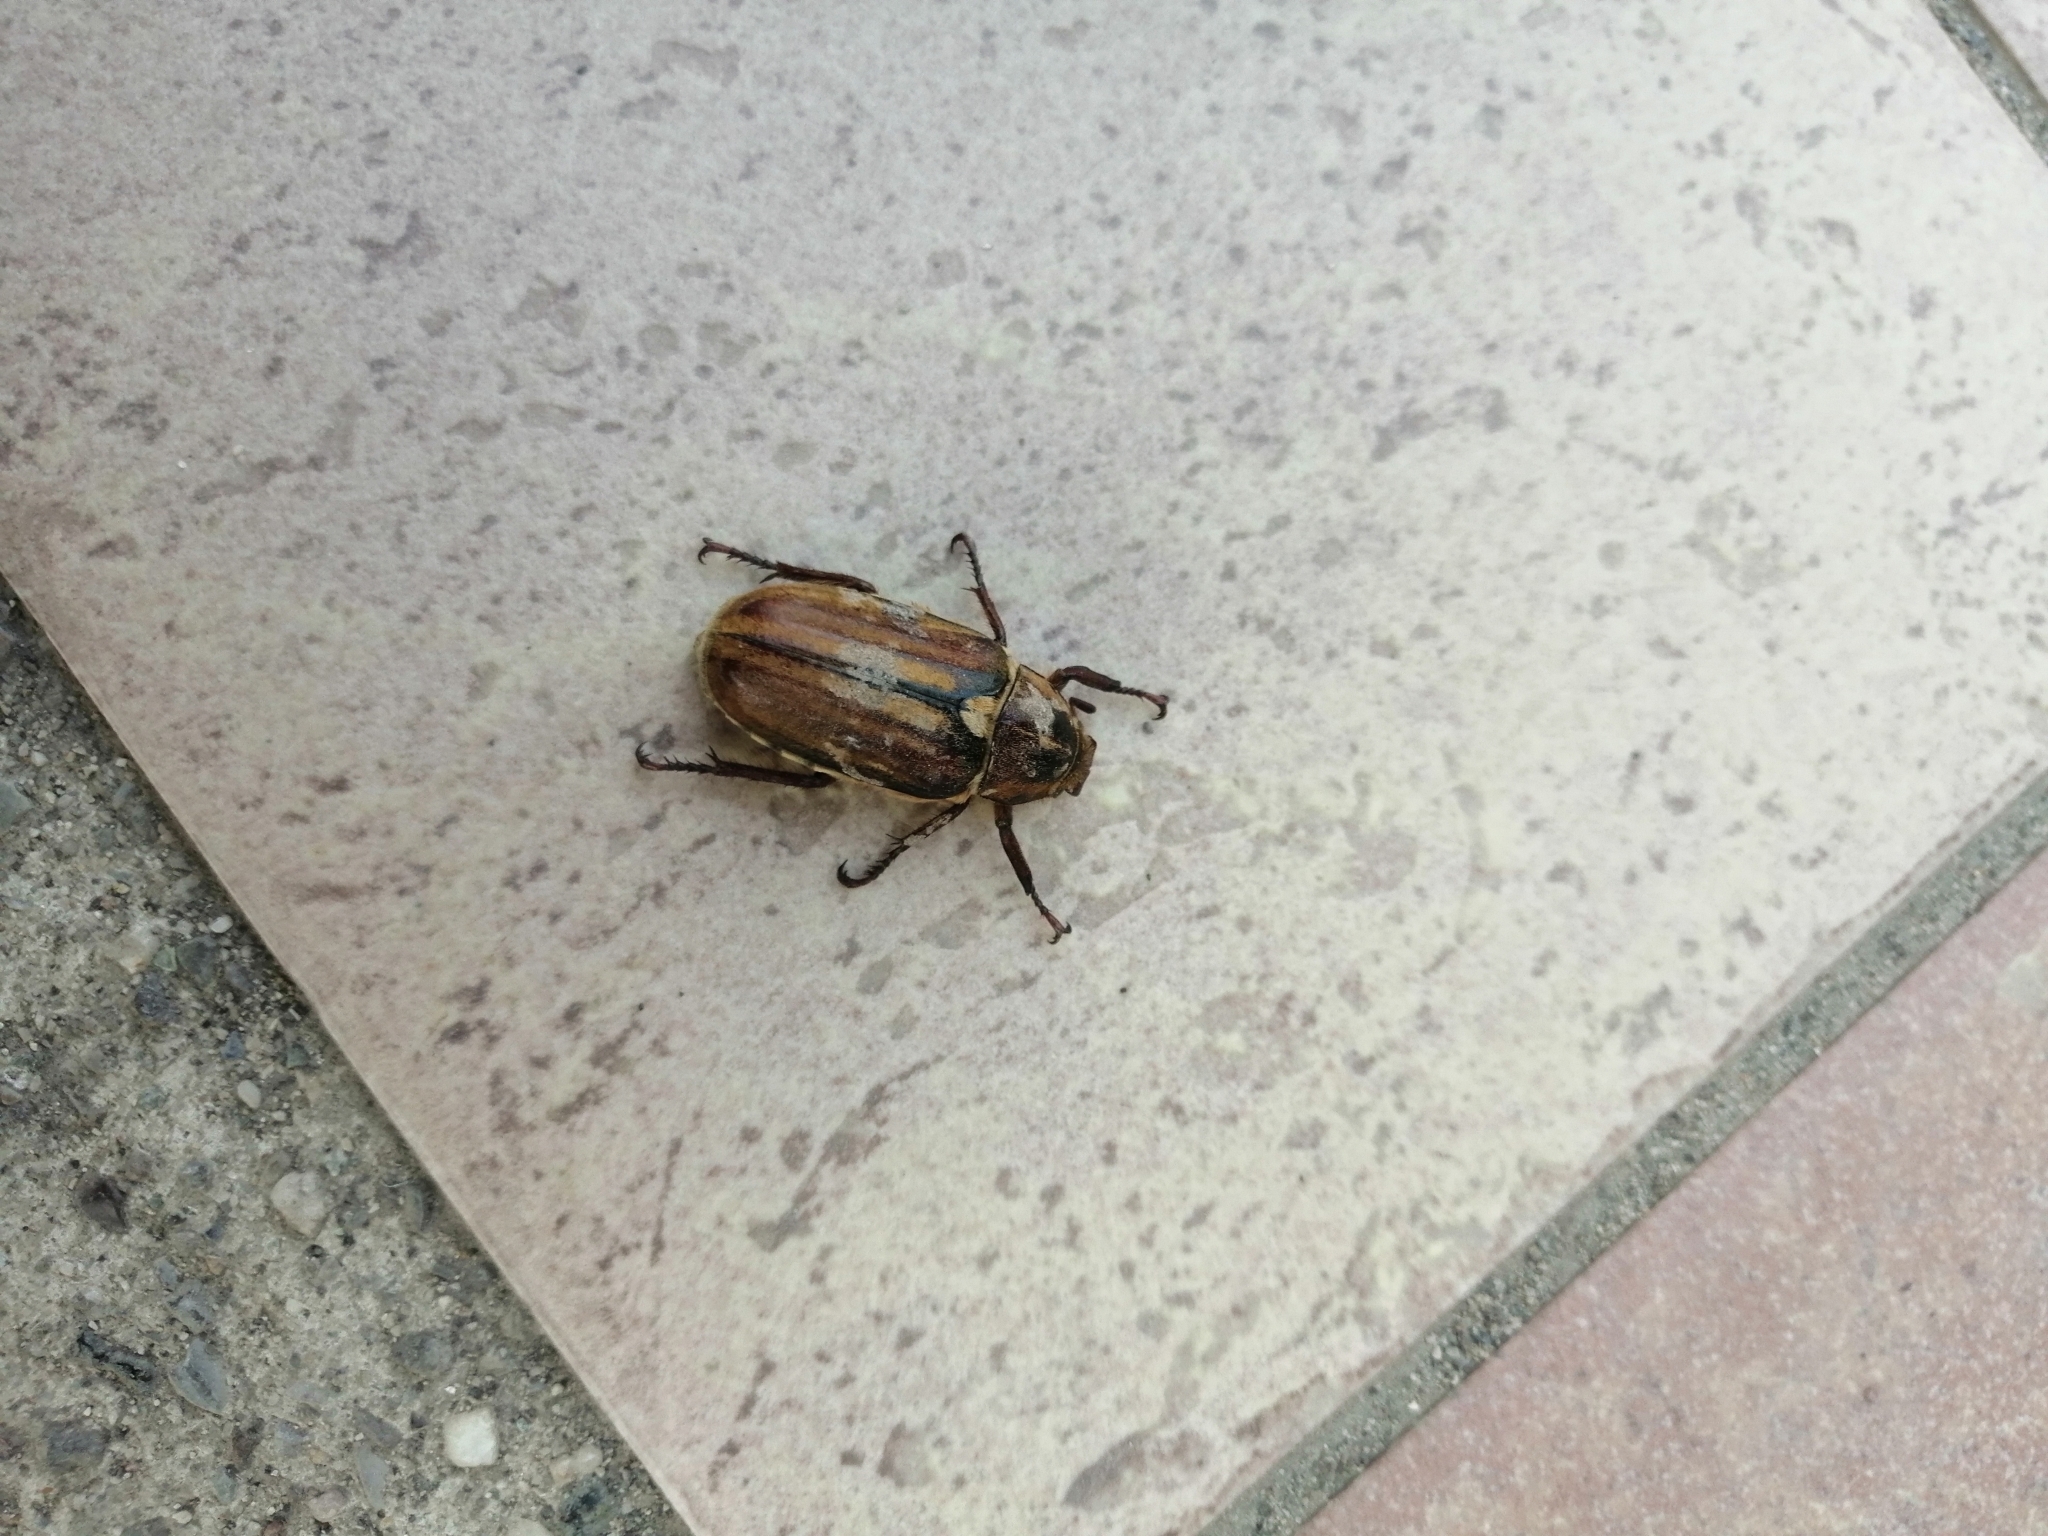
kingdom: Animalia
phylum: Arthropoda
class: Insecta
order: Coleoptera
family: Scarabaeidae
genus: Anoxia
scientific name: Anoxia matutinalis
